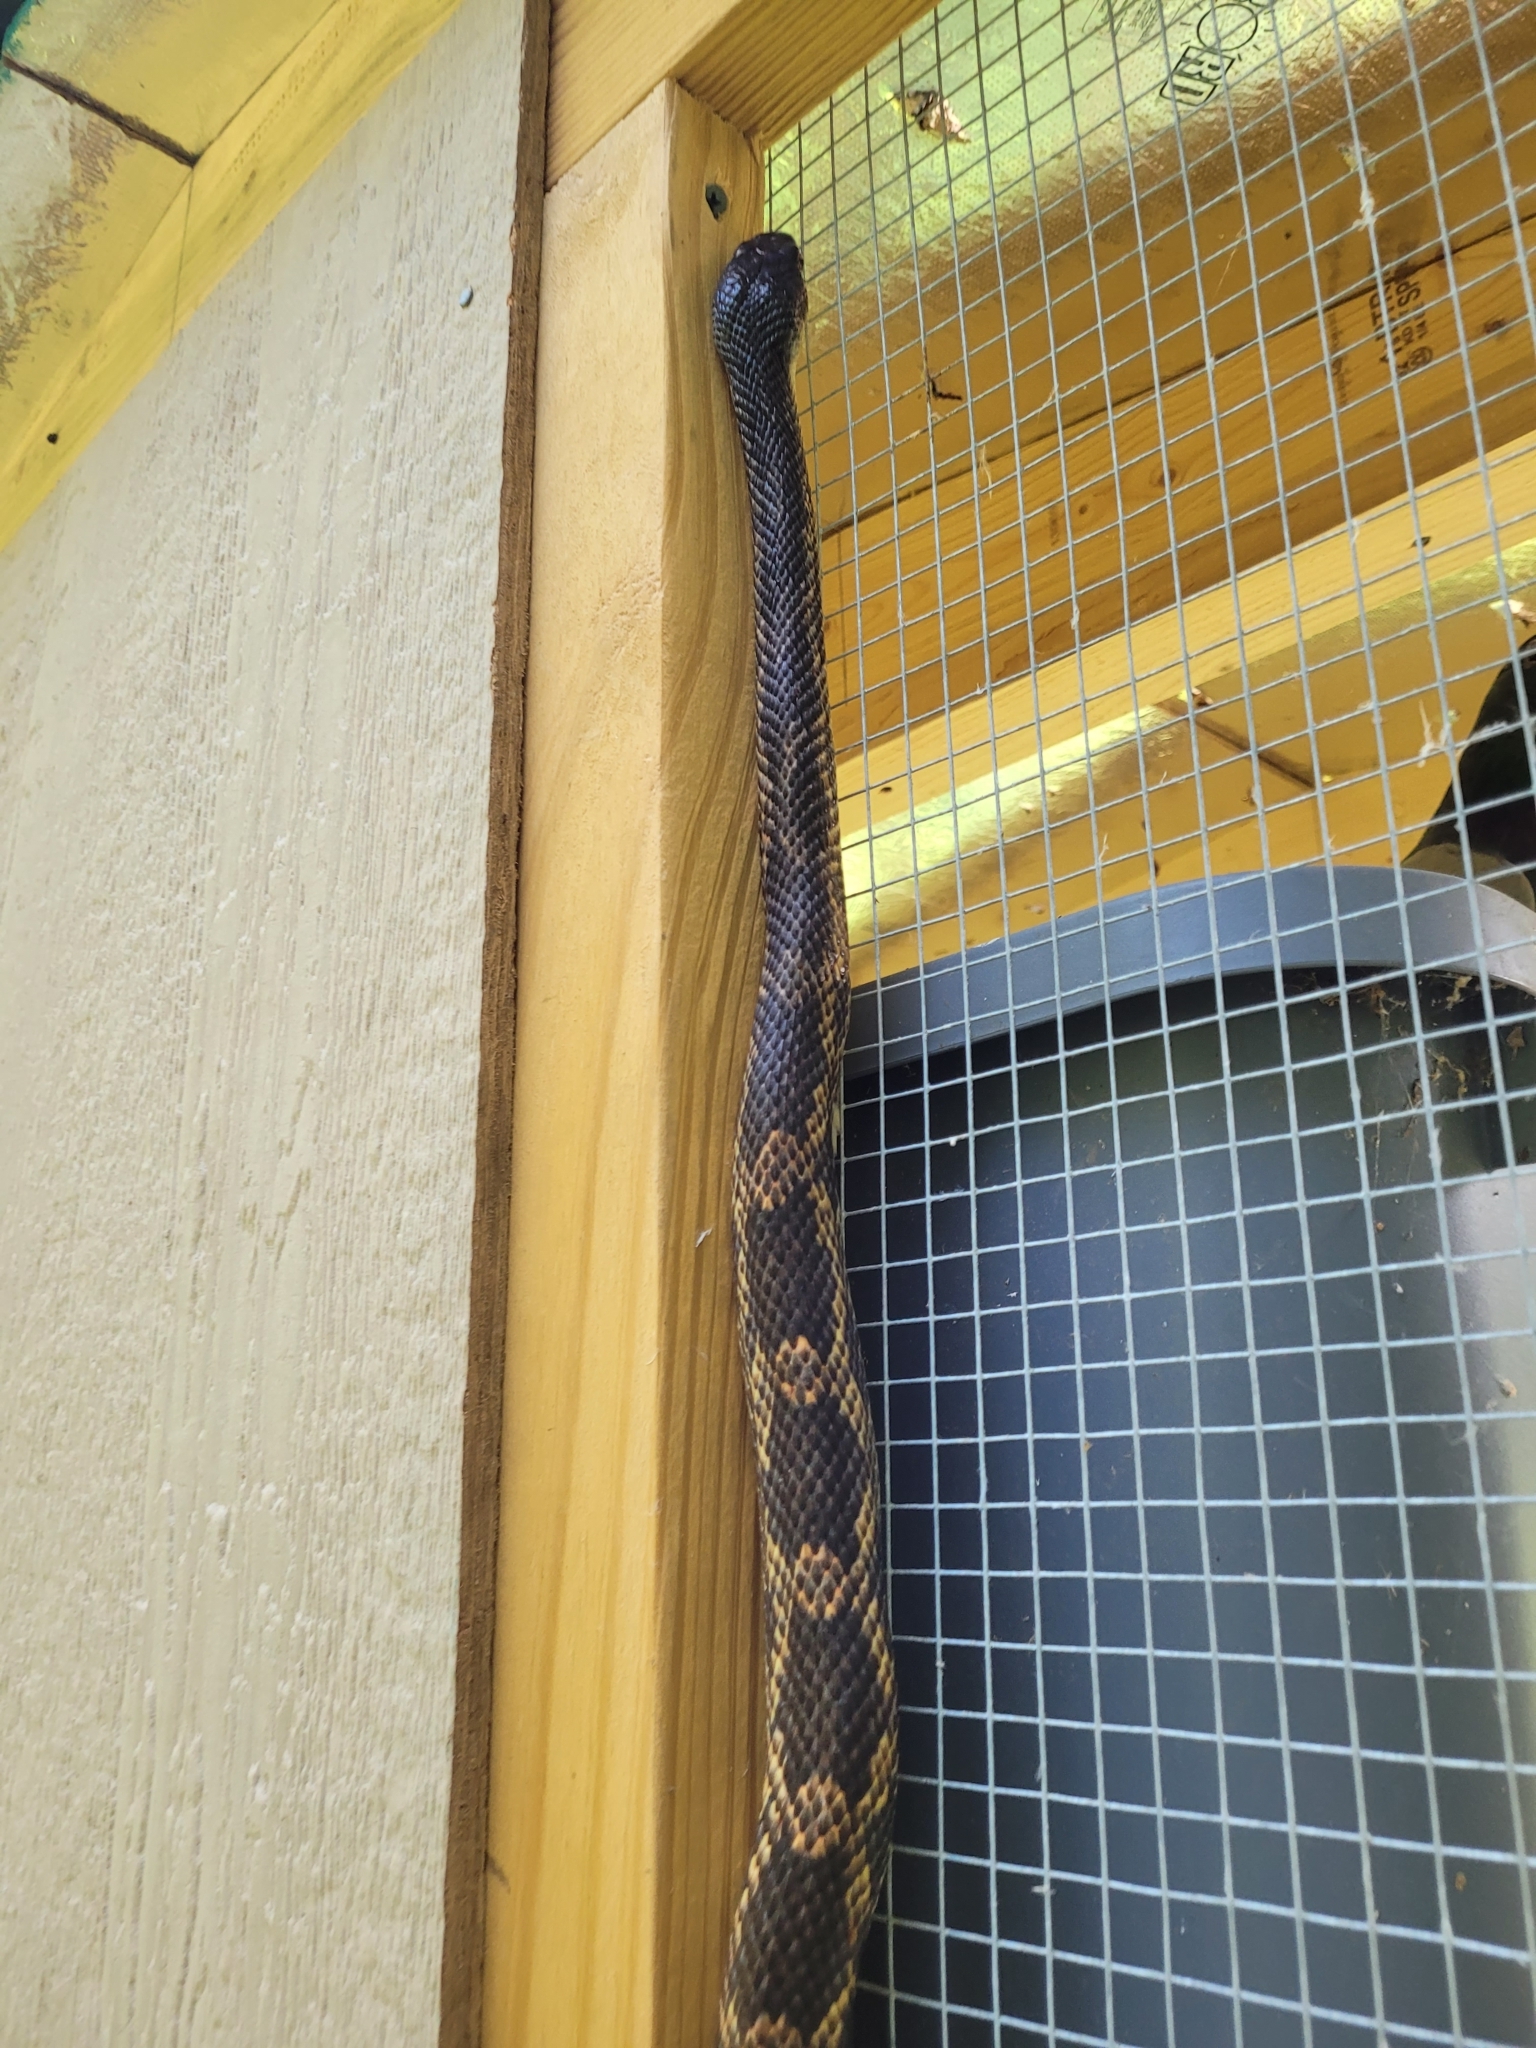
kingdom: Animalia
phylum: Chordata
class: Squamata
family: Colubridae
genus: Pantherophis
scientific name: Pantherophis obsoletus
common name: Black rat snake
